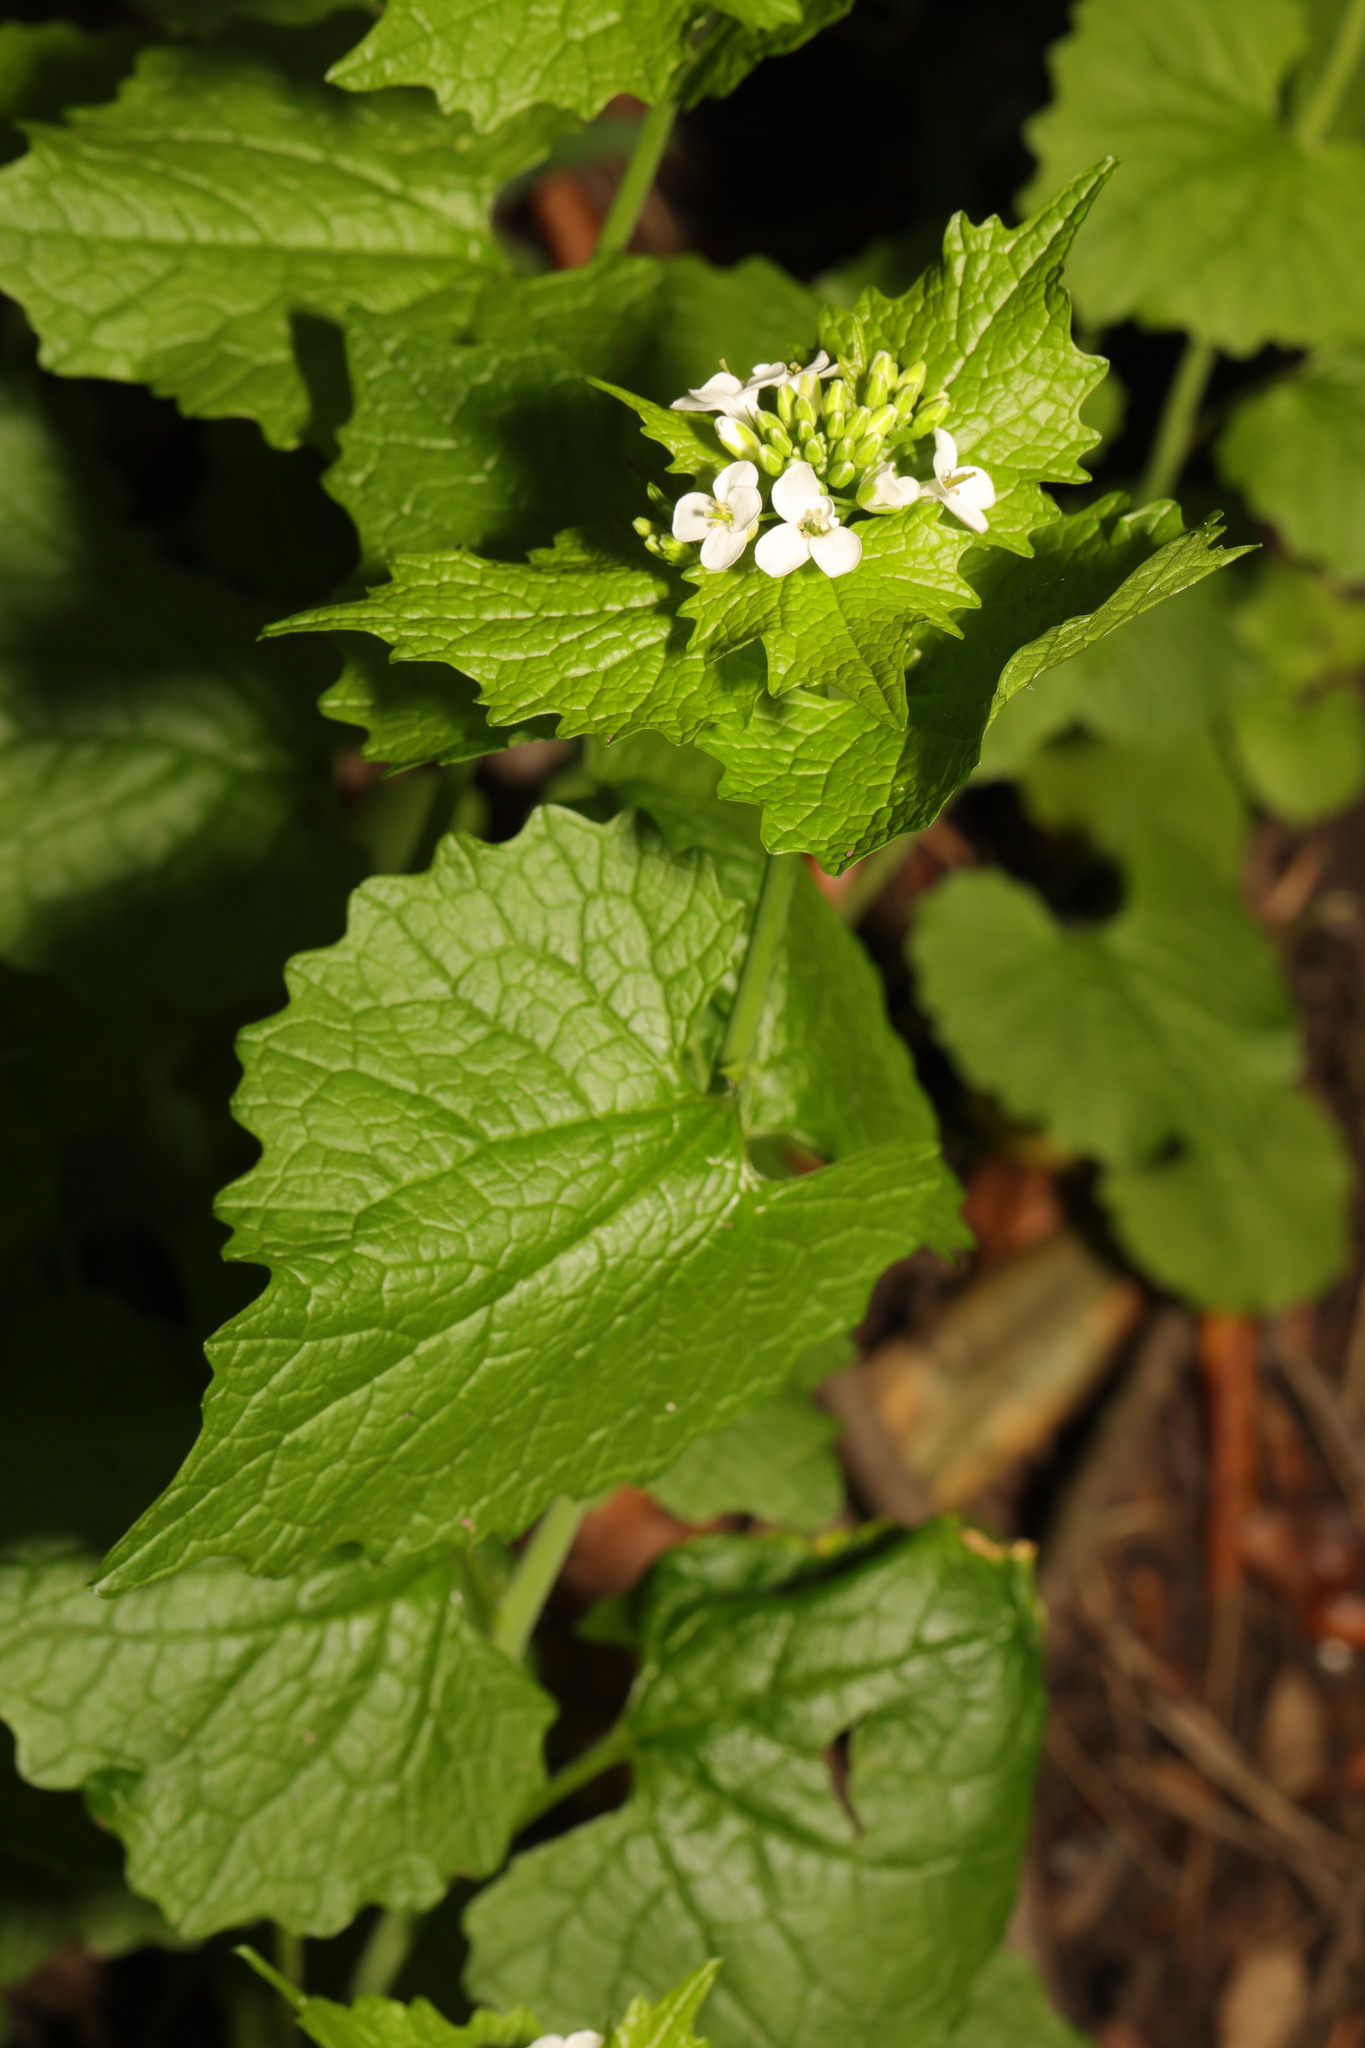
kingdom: Plantae
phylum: Tracheophyta
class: Magnoliopsida
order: Brassicales
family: Brassicaceae
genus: Alliaria
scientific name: Alliaria petiolata
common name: Garlic mustard
